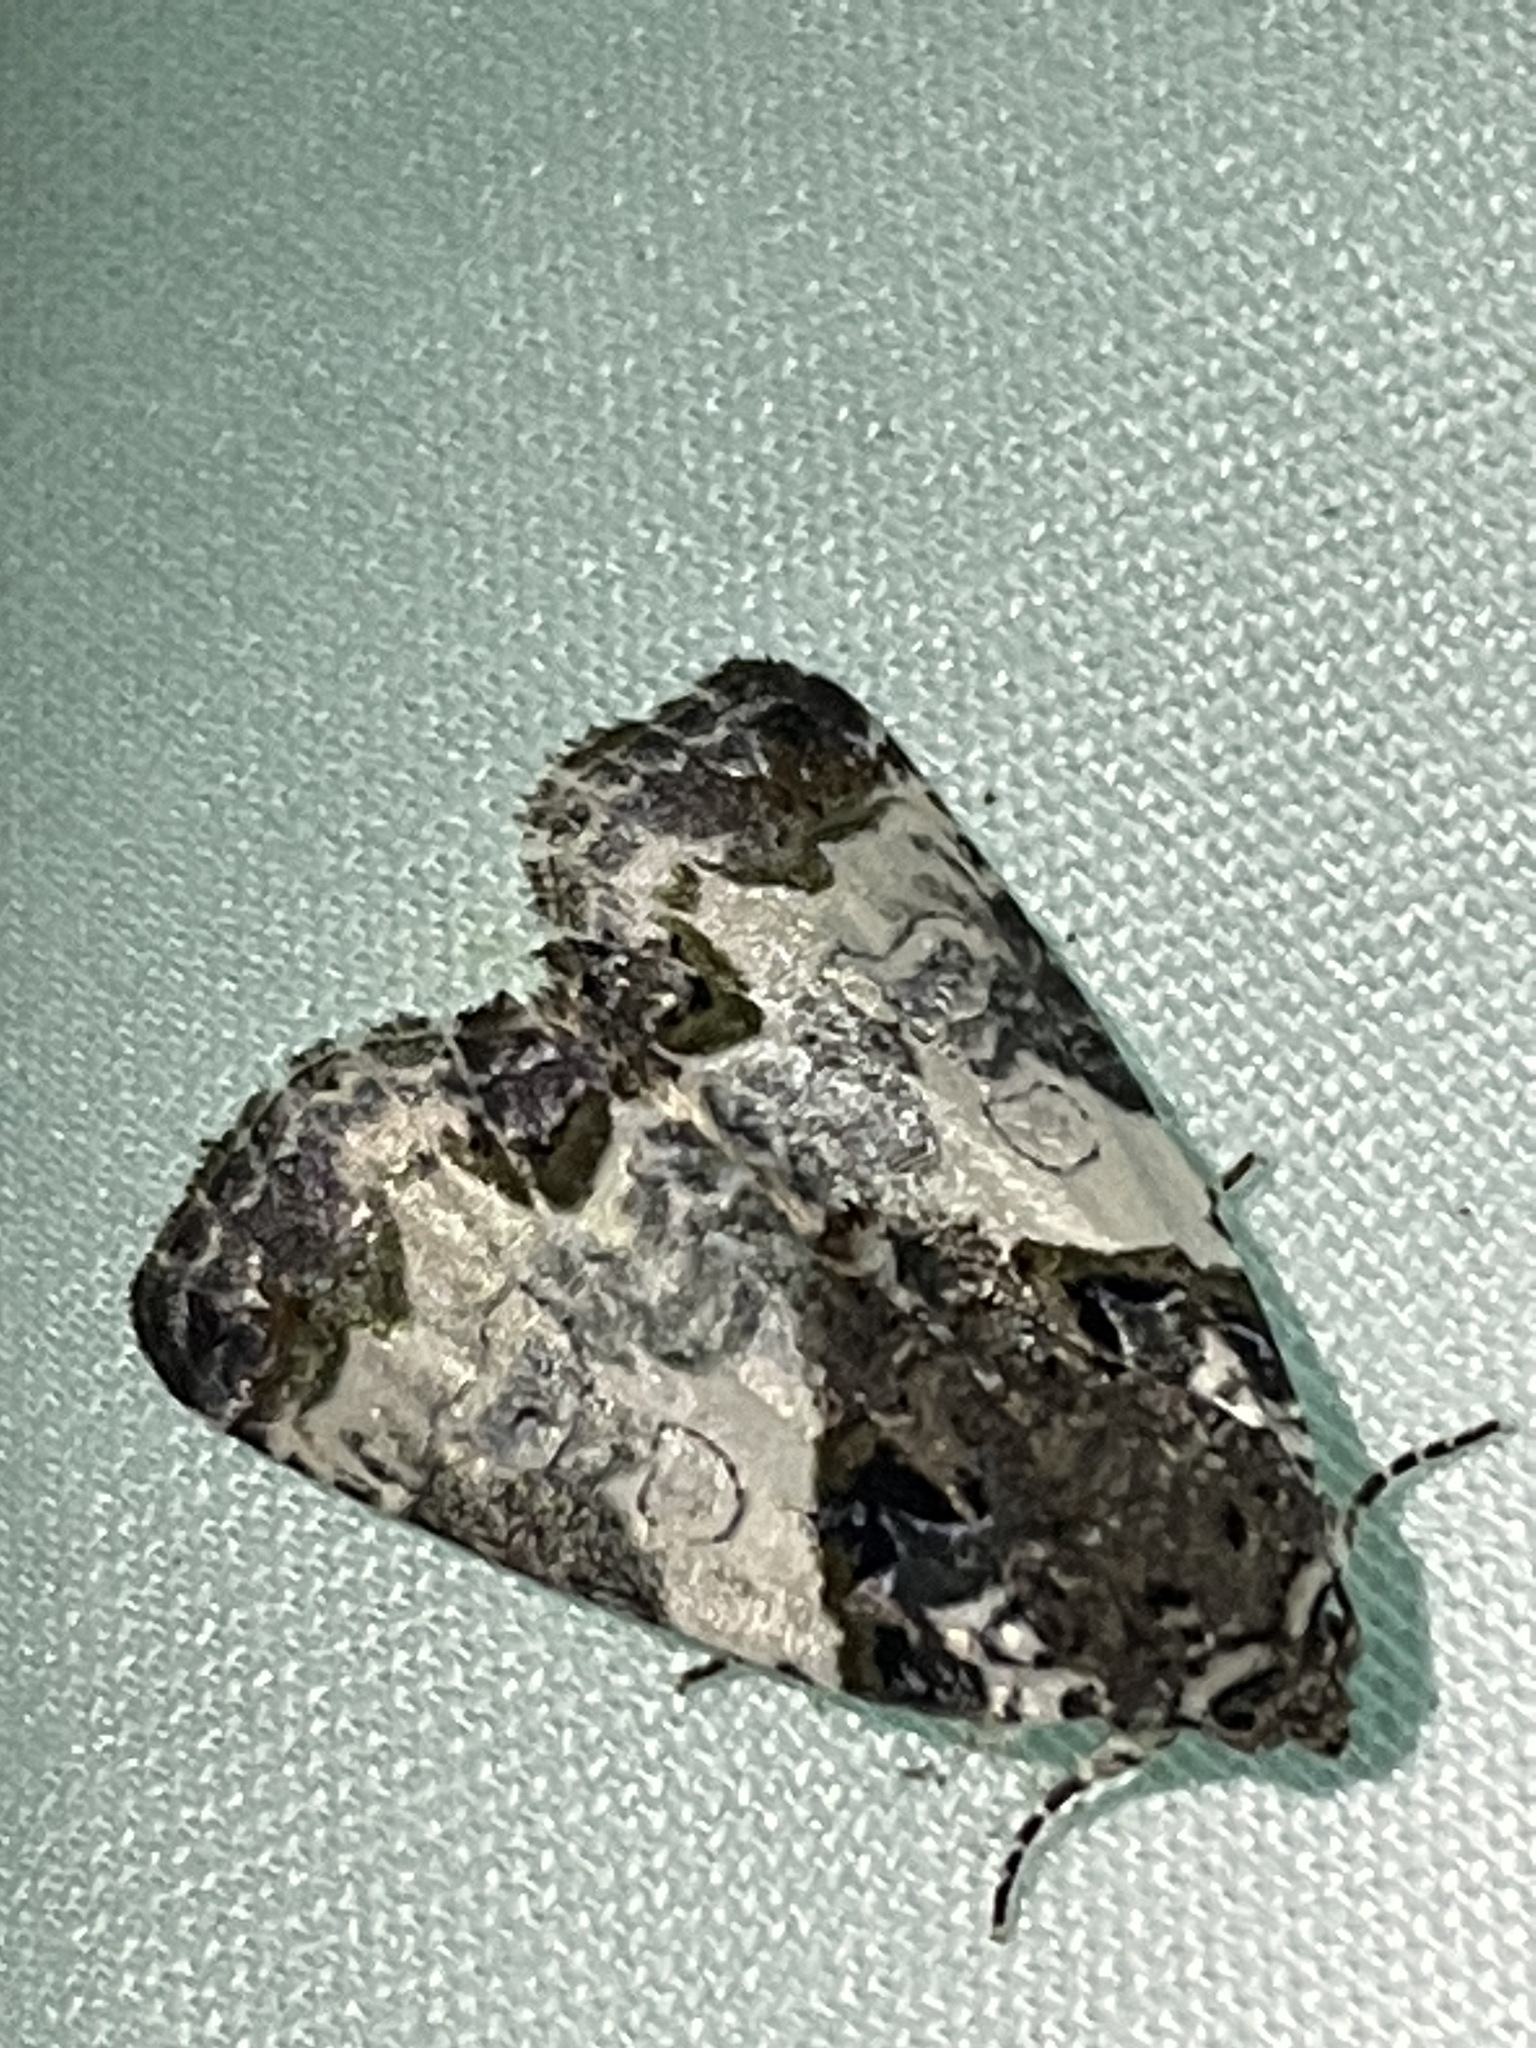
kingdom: Animalia
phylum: Arthropoda
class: Insecta
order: Lepidoptera
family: Noctuidae
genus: Cerma
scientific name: Cerma cerintha
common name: Tufted bird-dropping moth
